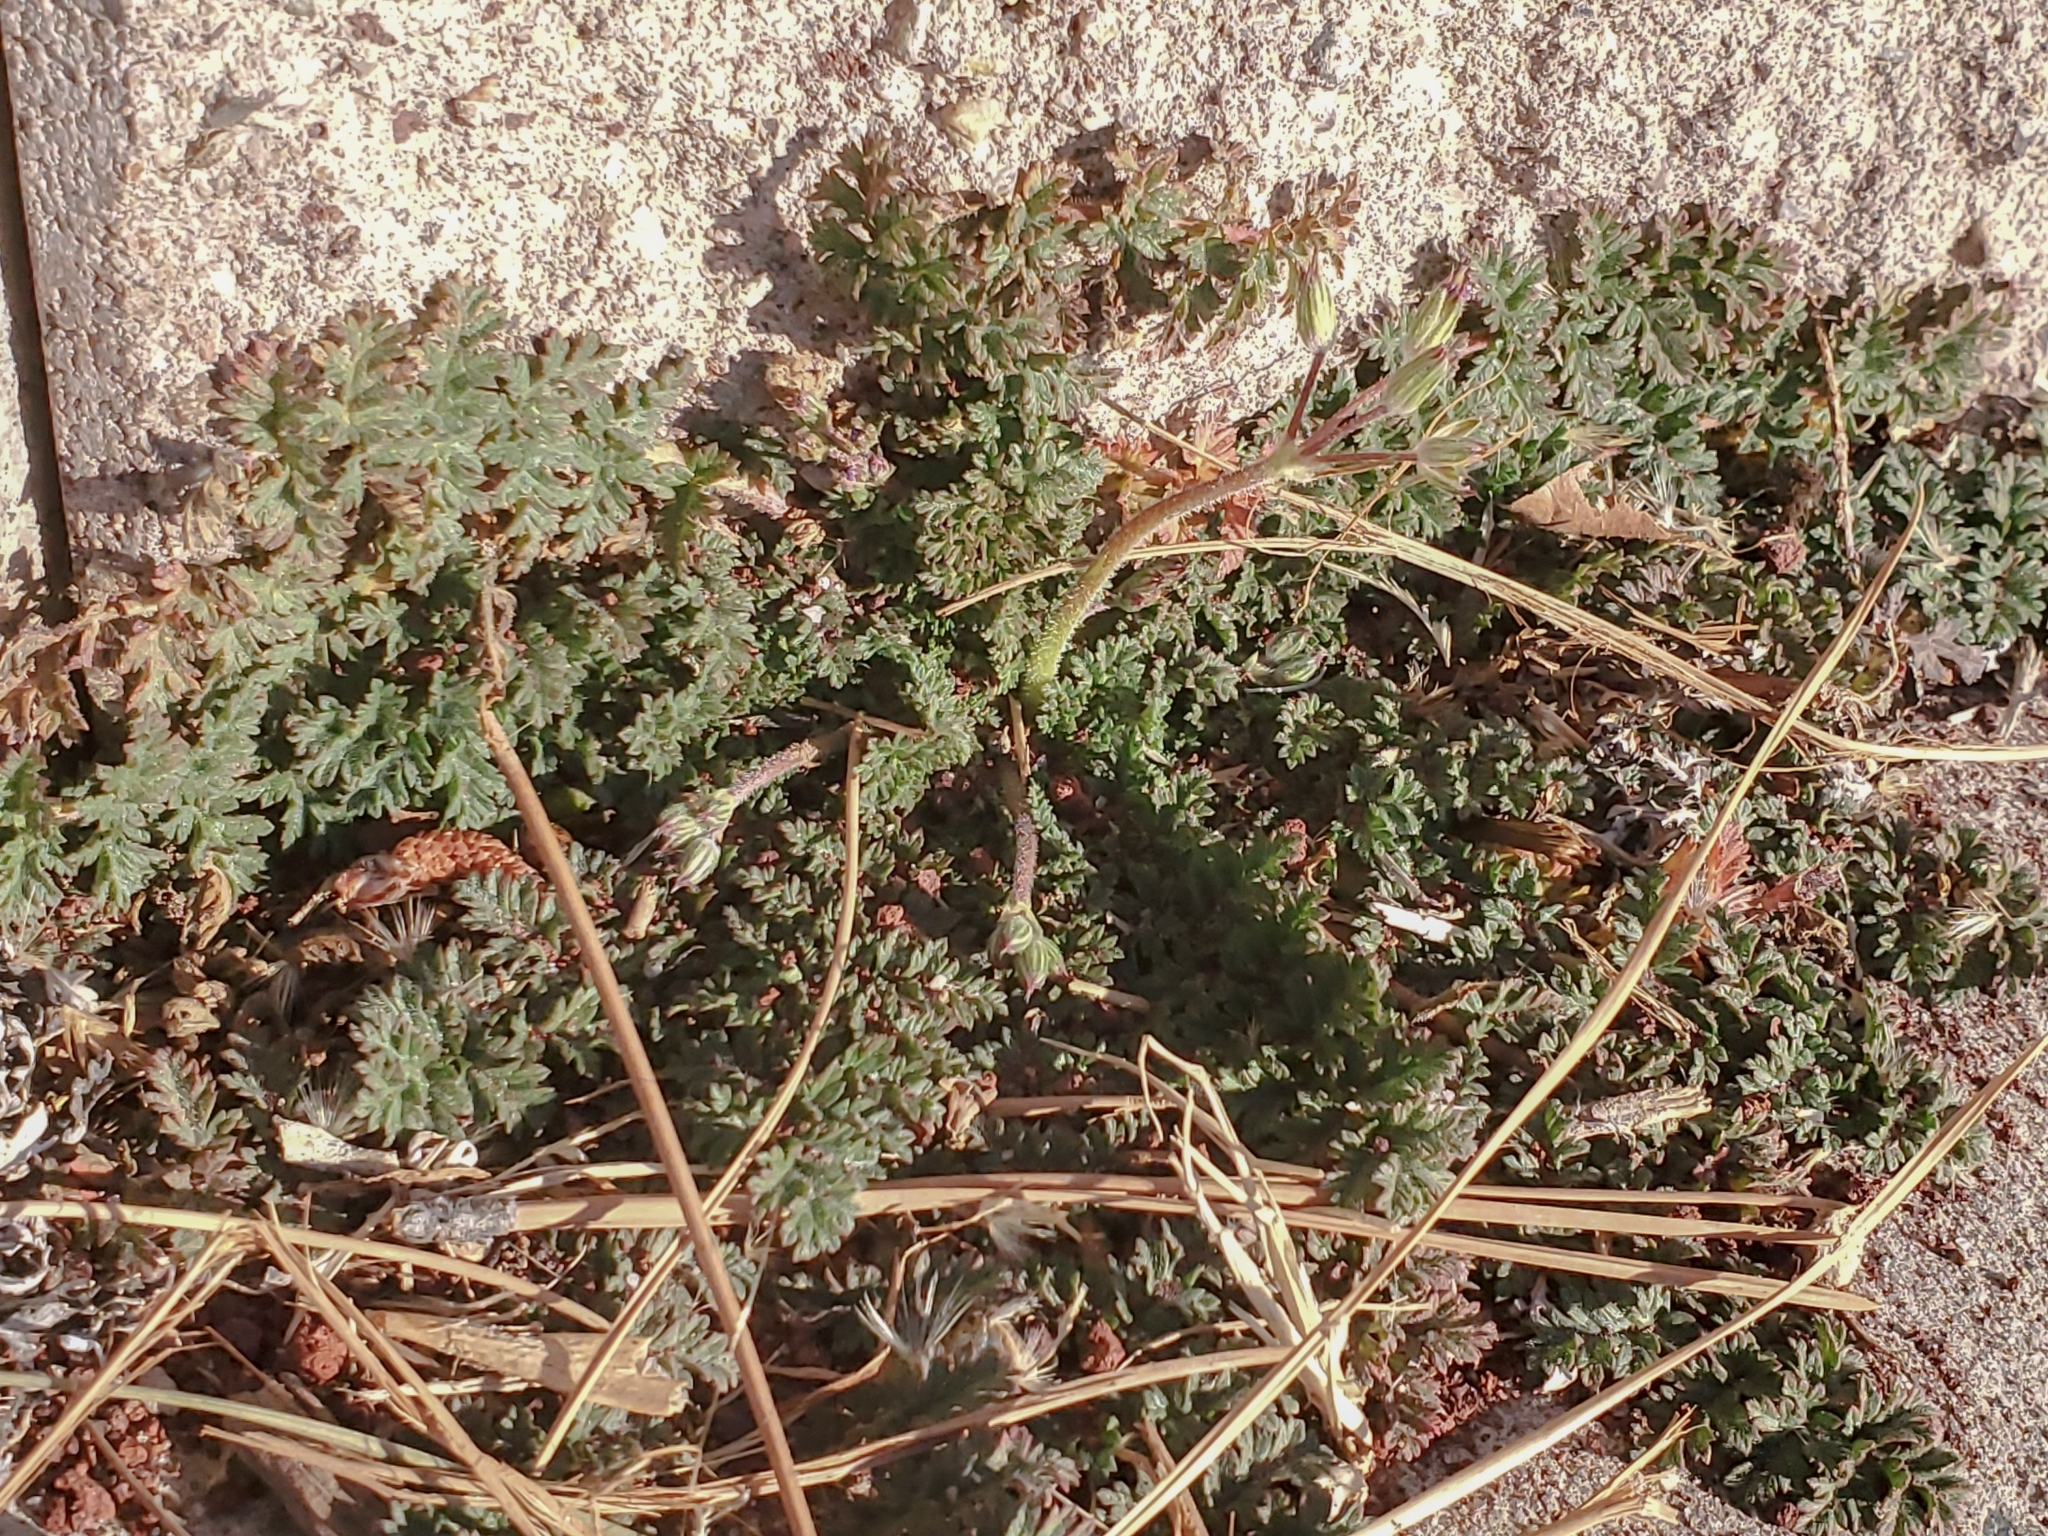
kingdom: Plantae
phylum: Tracheophyta
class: Magnoliopsida
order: Geraniales
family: Geraniaceae
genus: Erodium
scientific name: Erodium cicutarium
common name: Common stork's-bill
